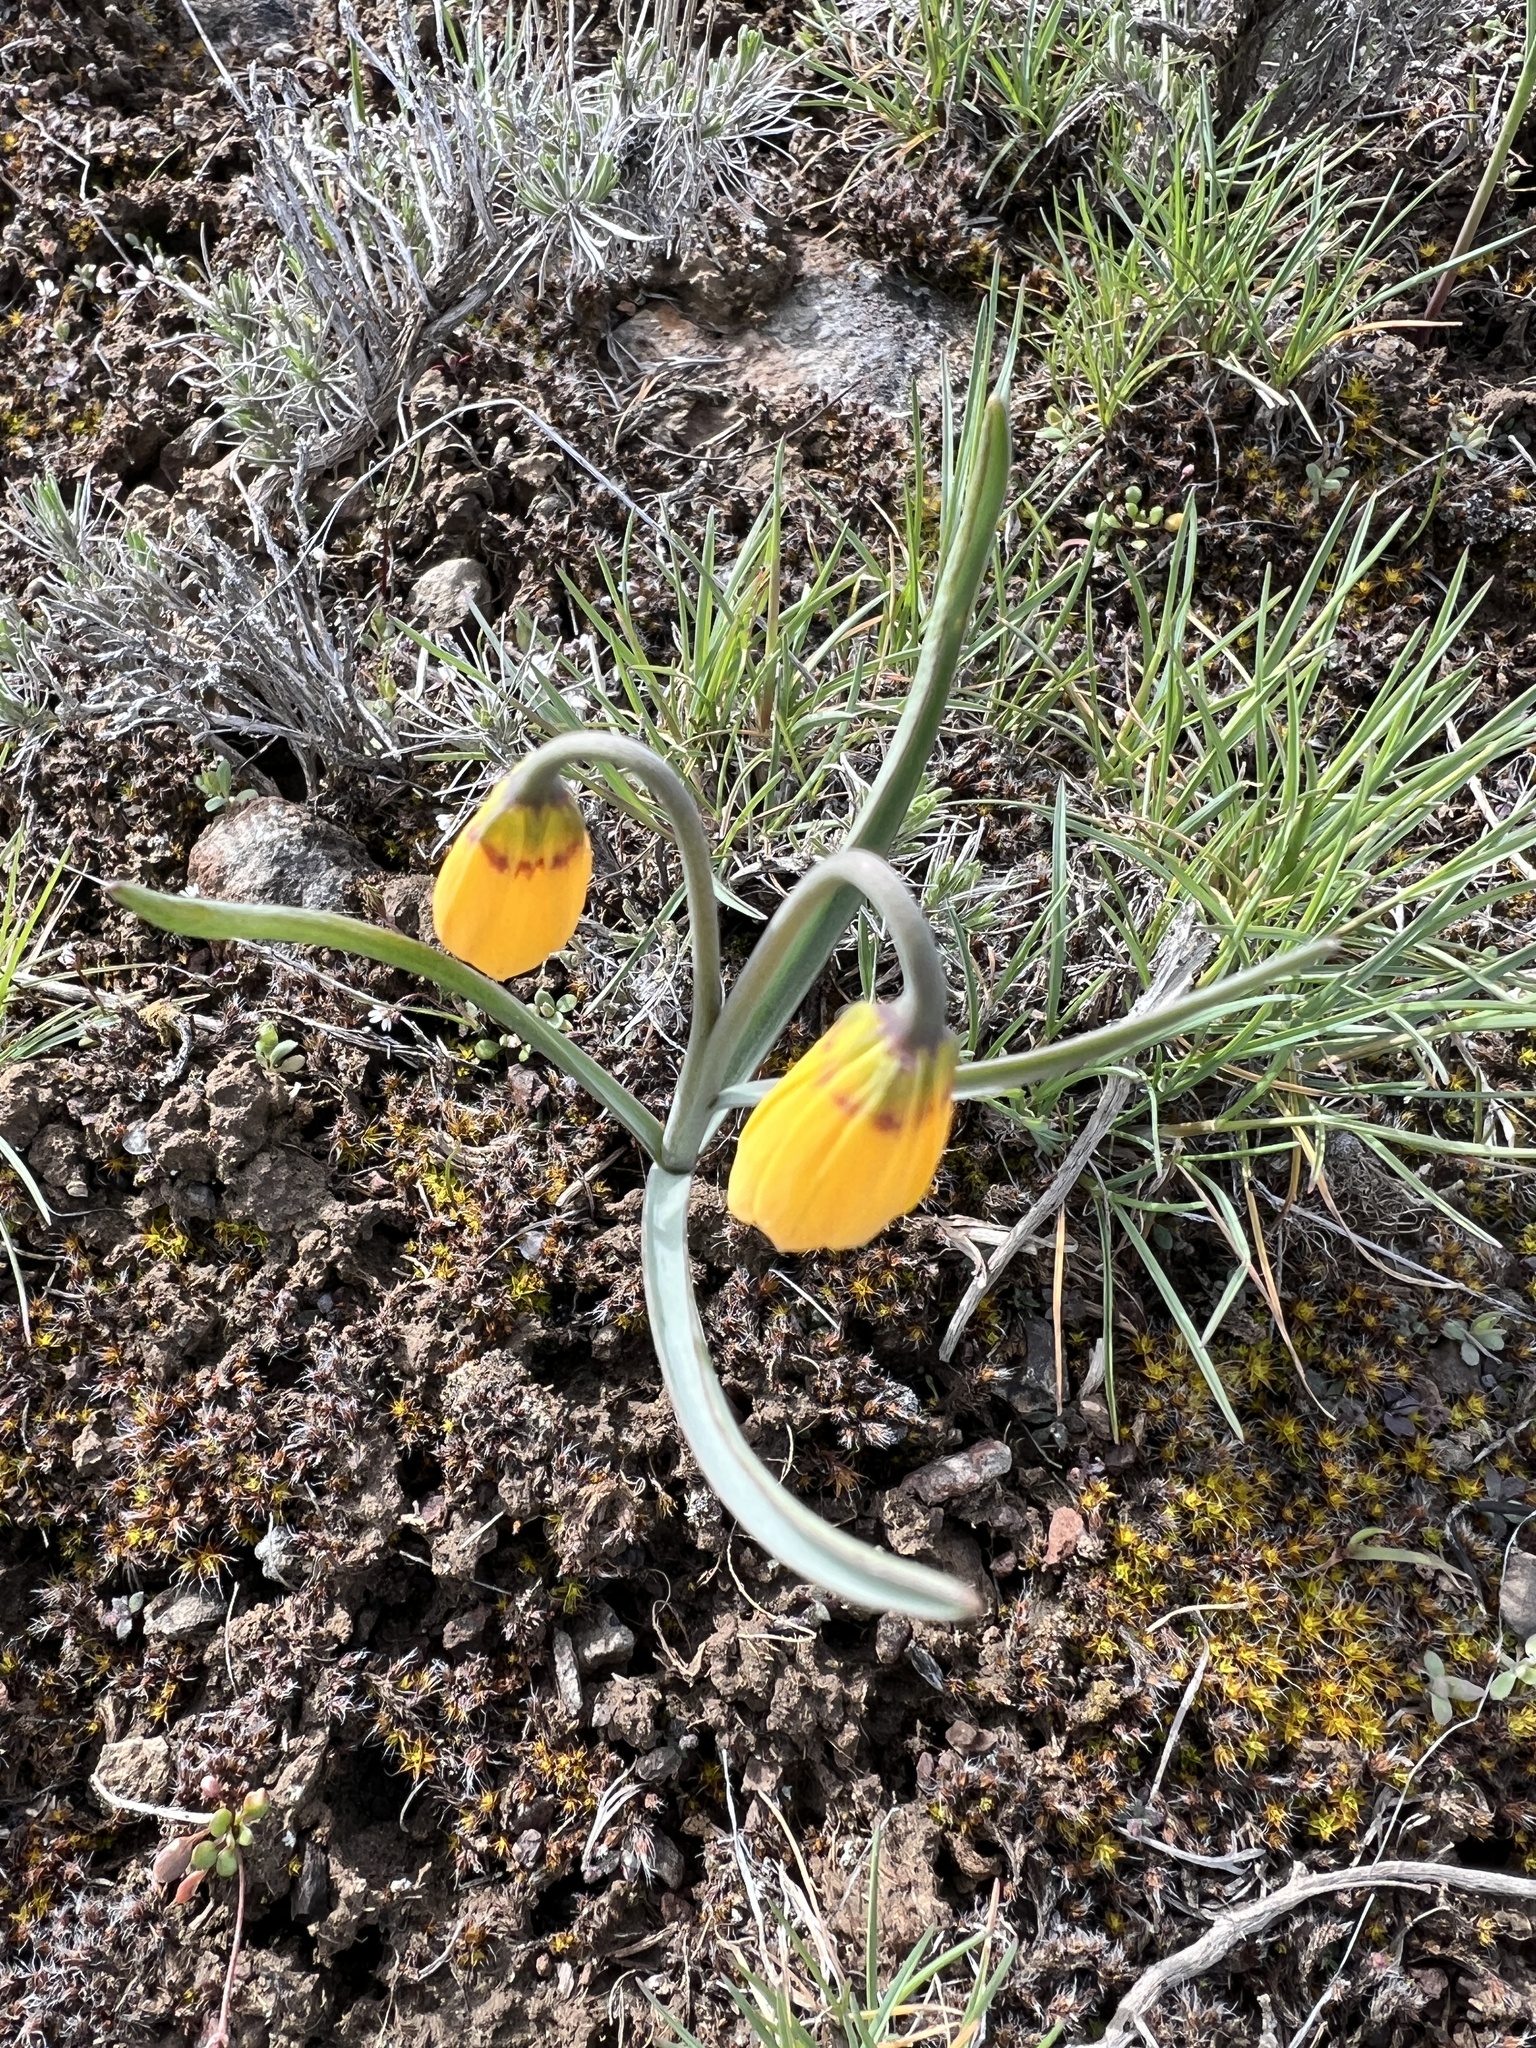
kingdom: Plantae
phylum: Tracheophyta
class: Liliopsida
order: Liliales
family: Liliaceae
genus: Fritillaria
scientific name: Fritillaria pudica
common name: Yellow fritillary
